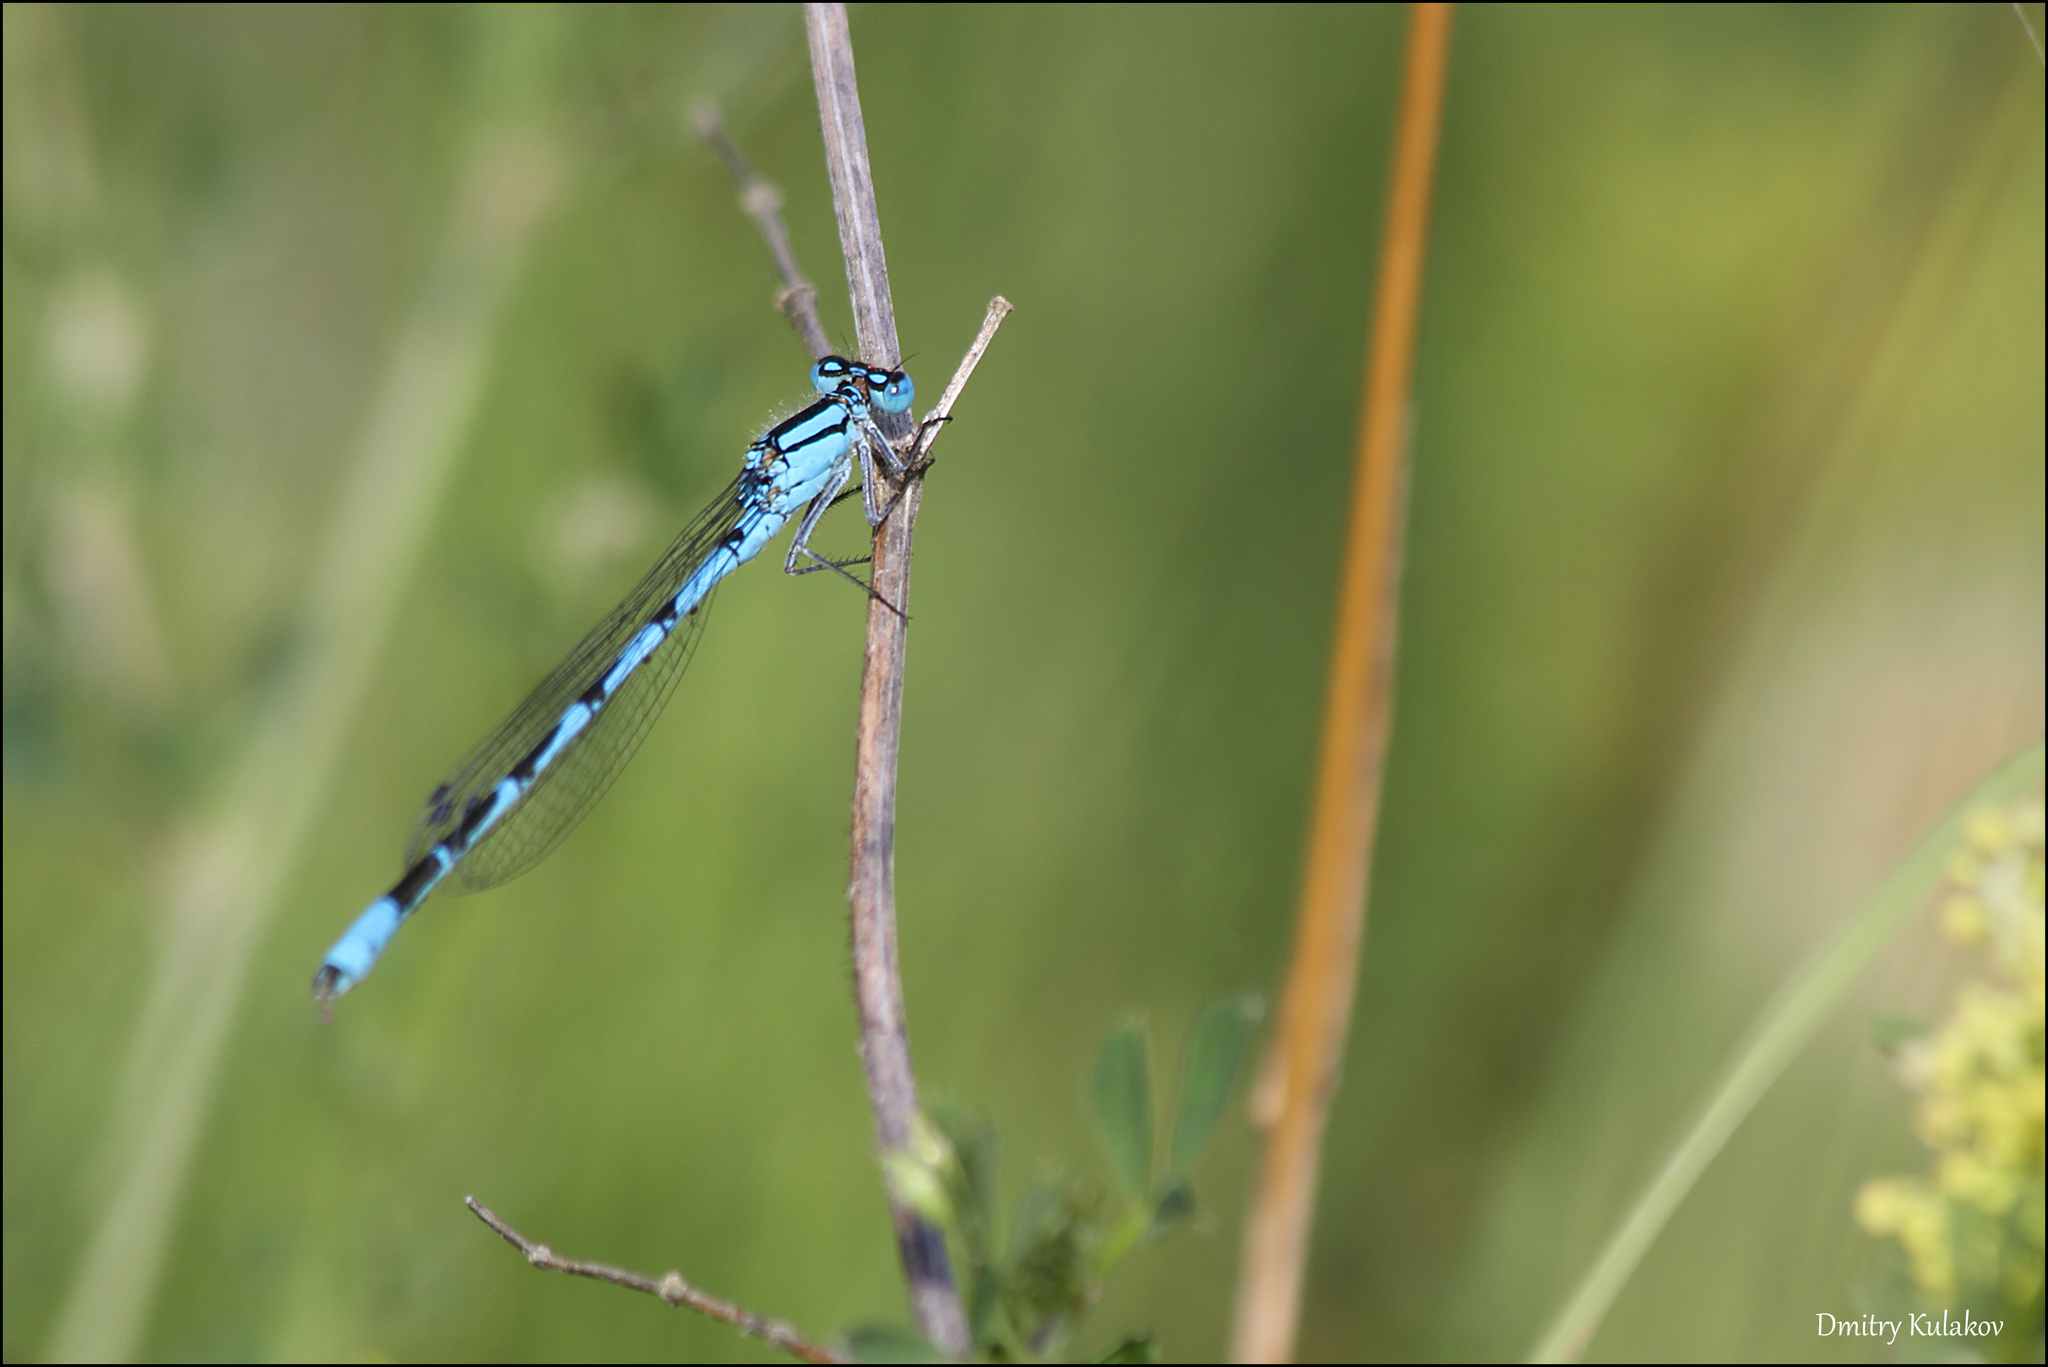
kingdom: Animalia
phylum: Arthropoda
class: Insecta
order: Odonata
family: Coenagrionidae
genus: Enallagma
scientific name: Enallagma cyathigerum
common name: Common blue damselfly
